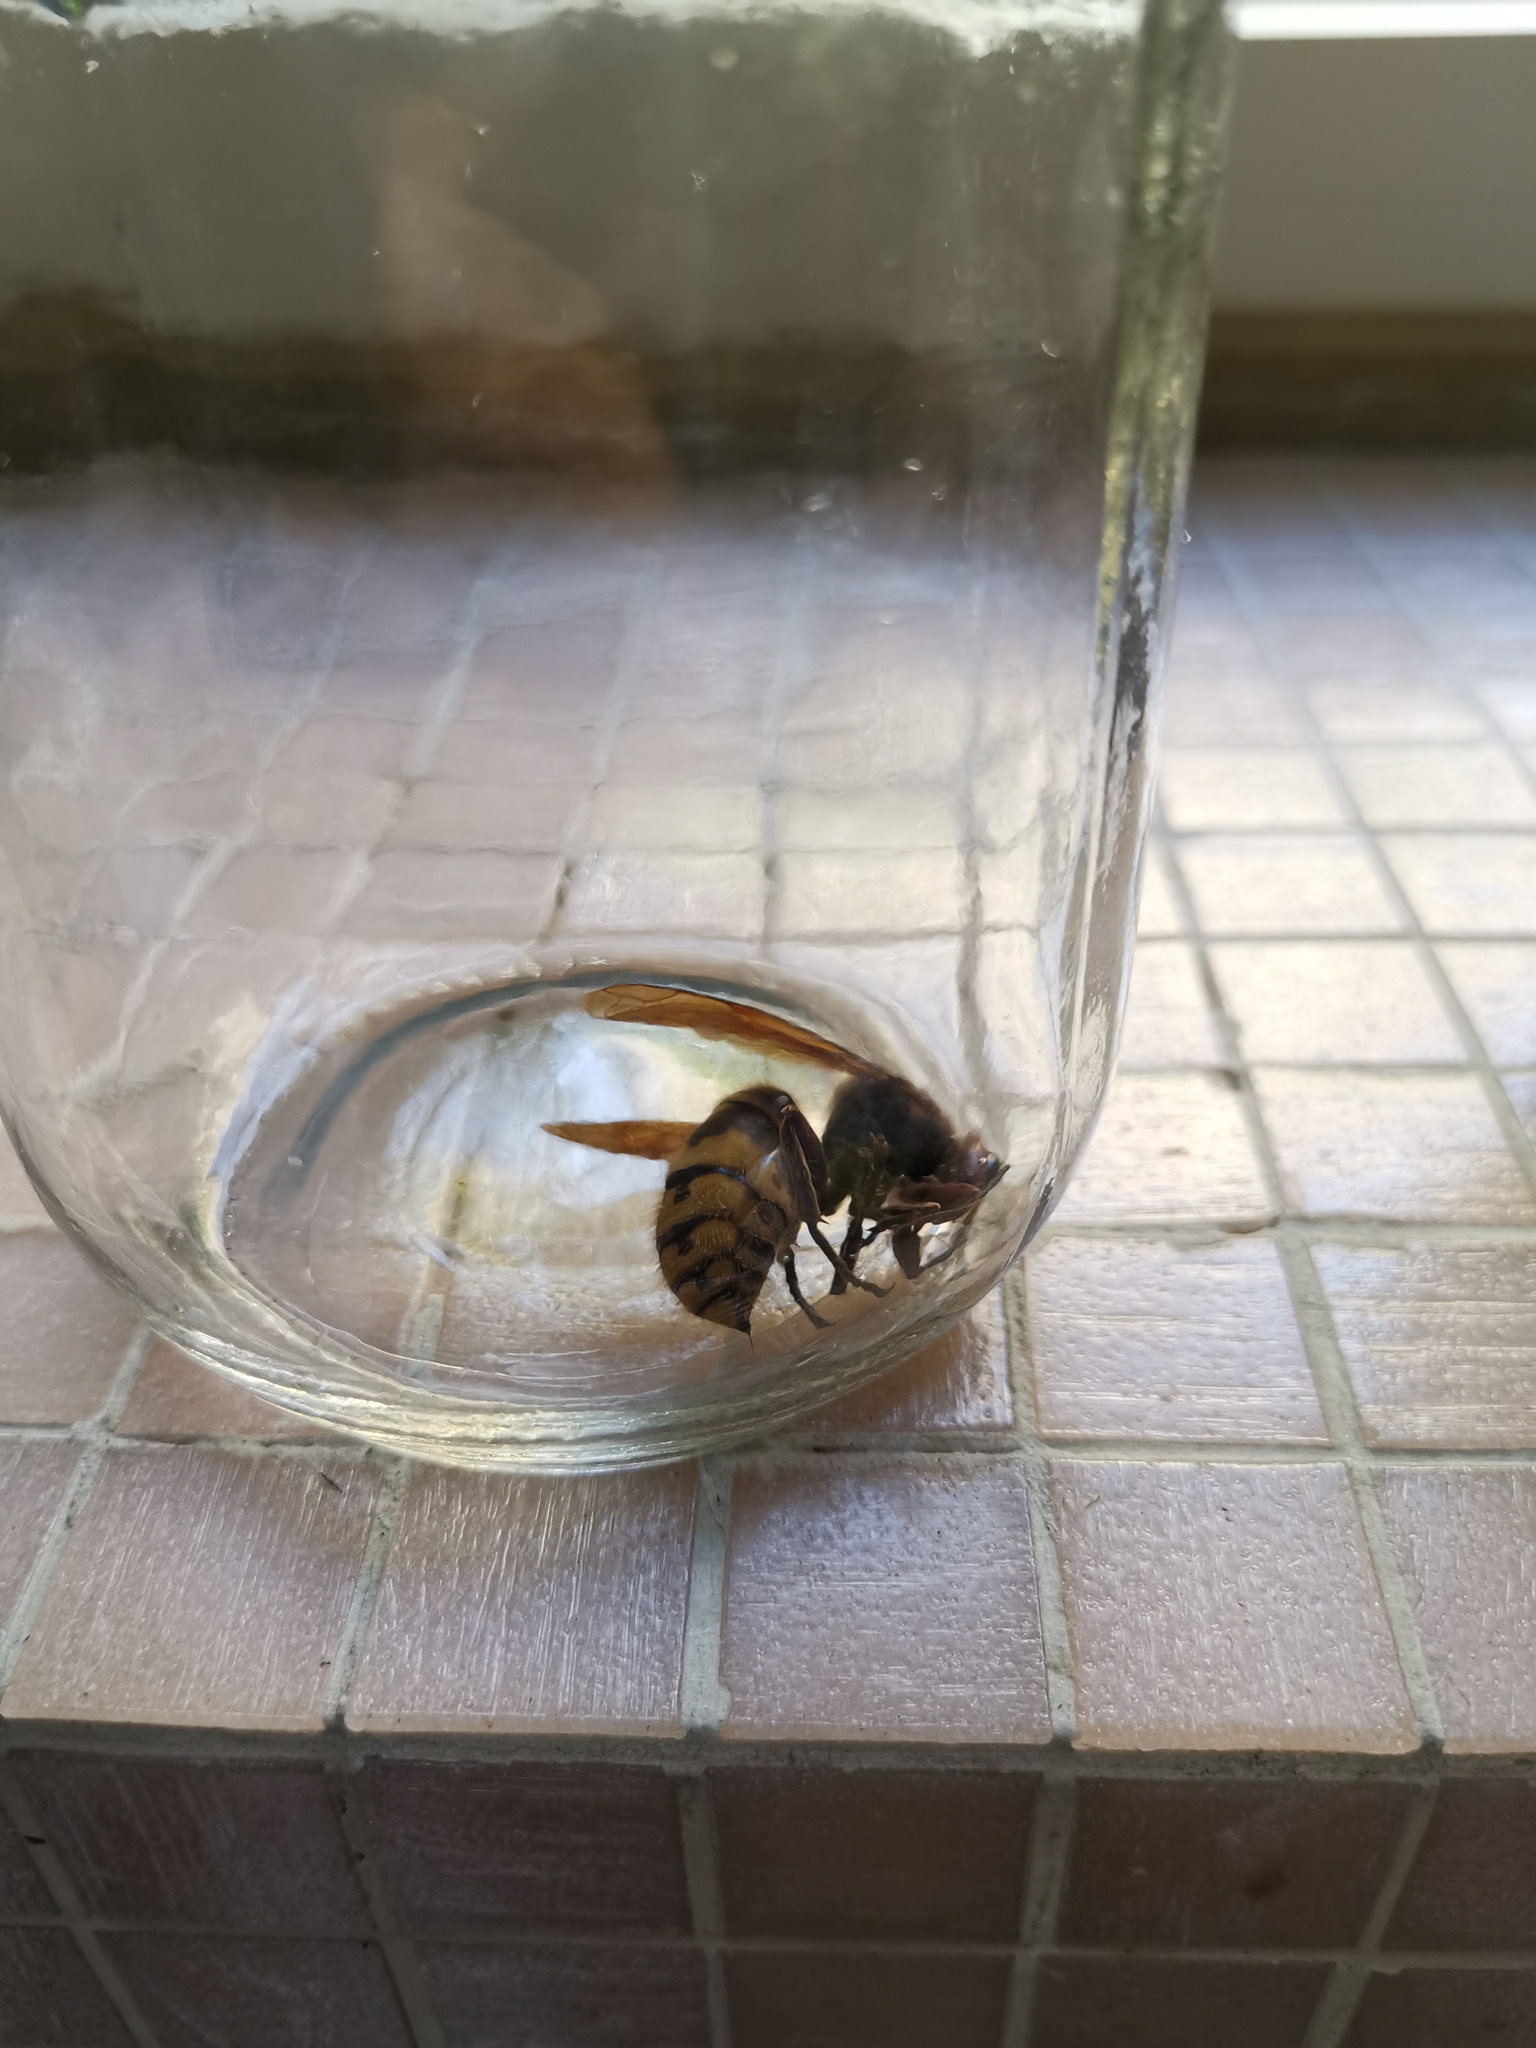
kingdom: Animalia
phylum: Arthropoda
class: Insecta
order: Hymenoptera
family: Vespidae
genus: Vespa
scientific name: Vespa crabro
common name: Hornet
